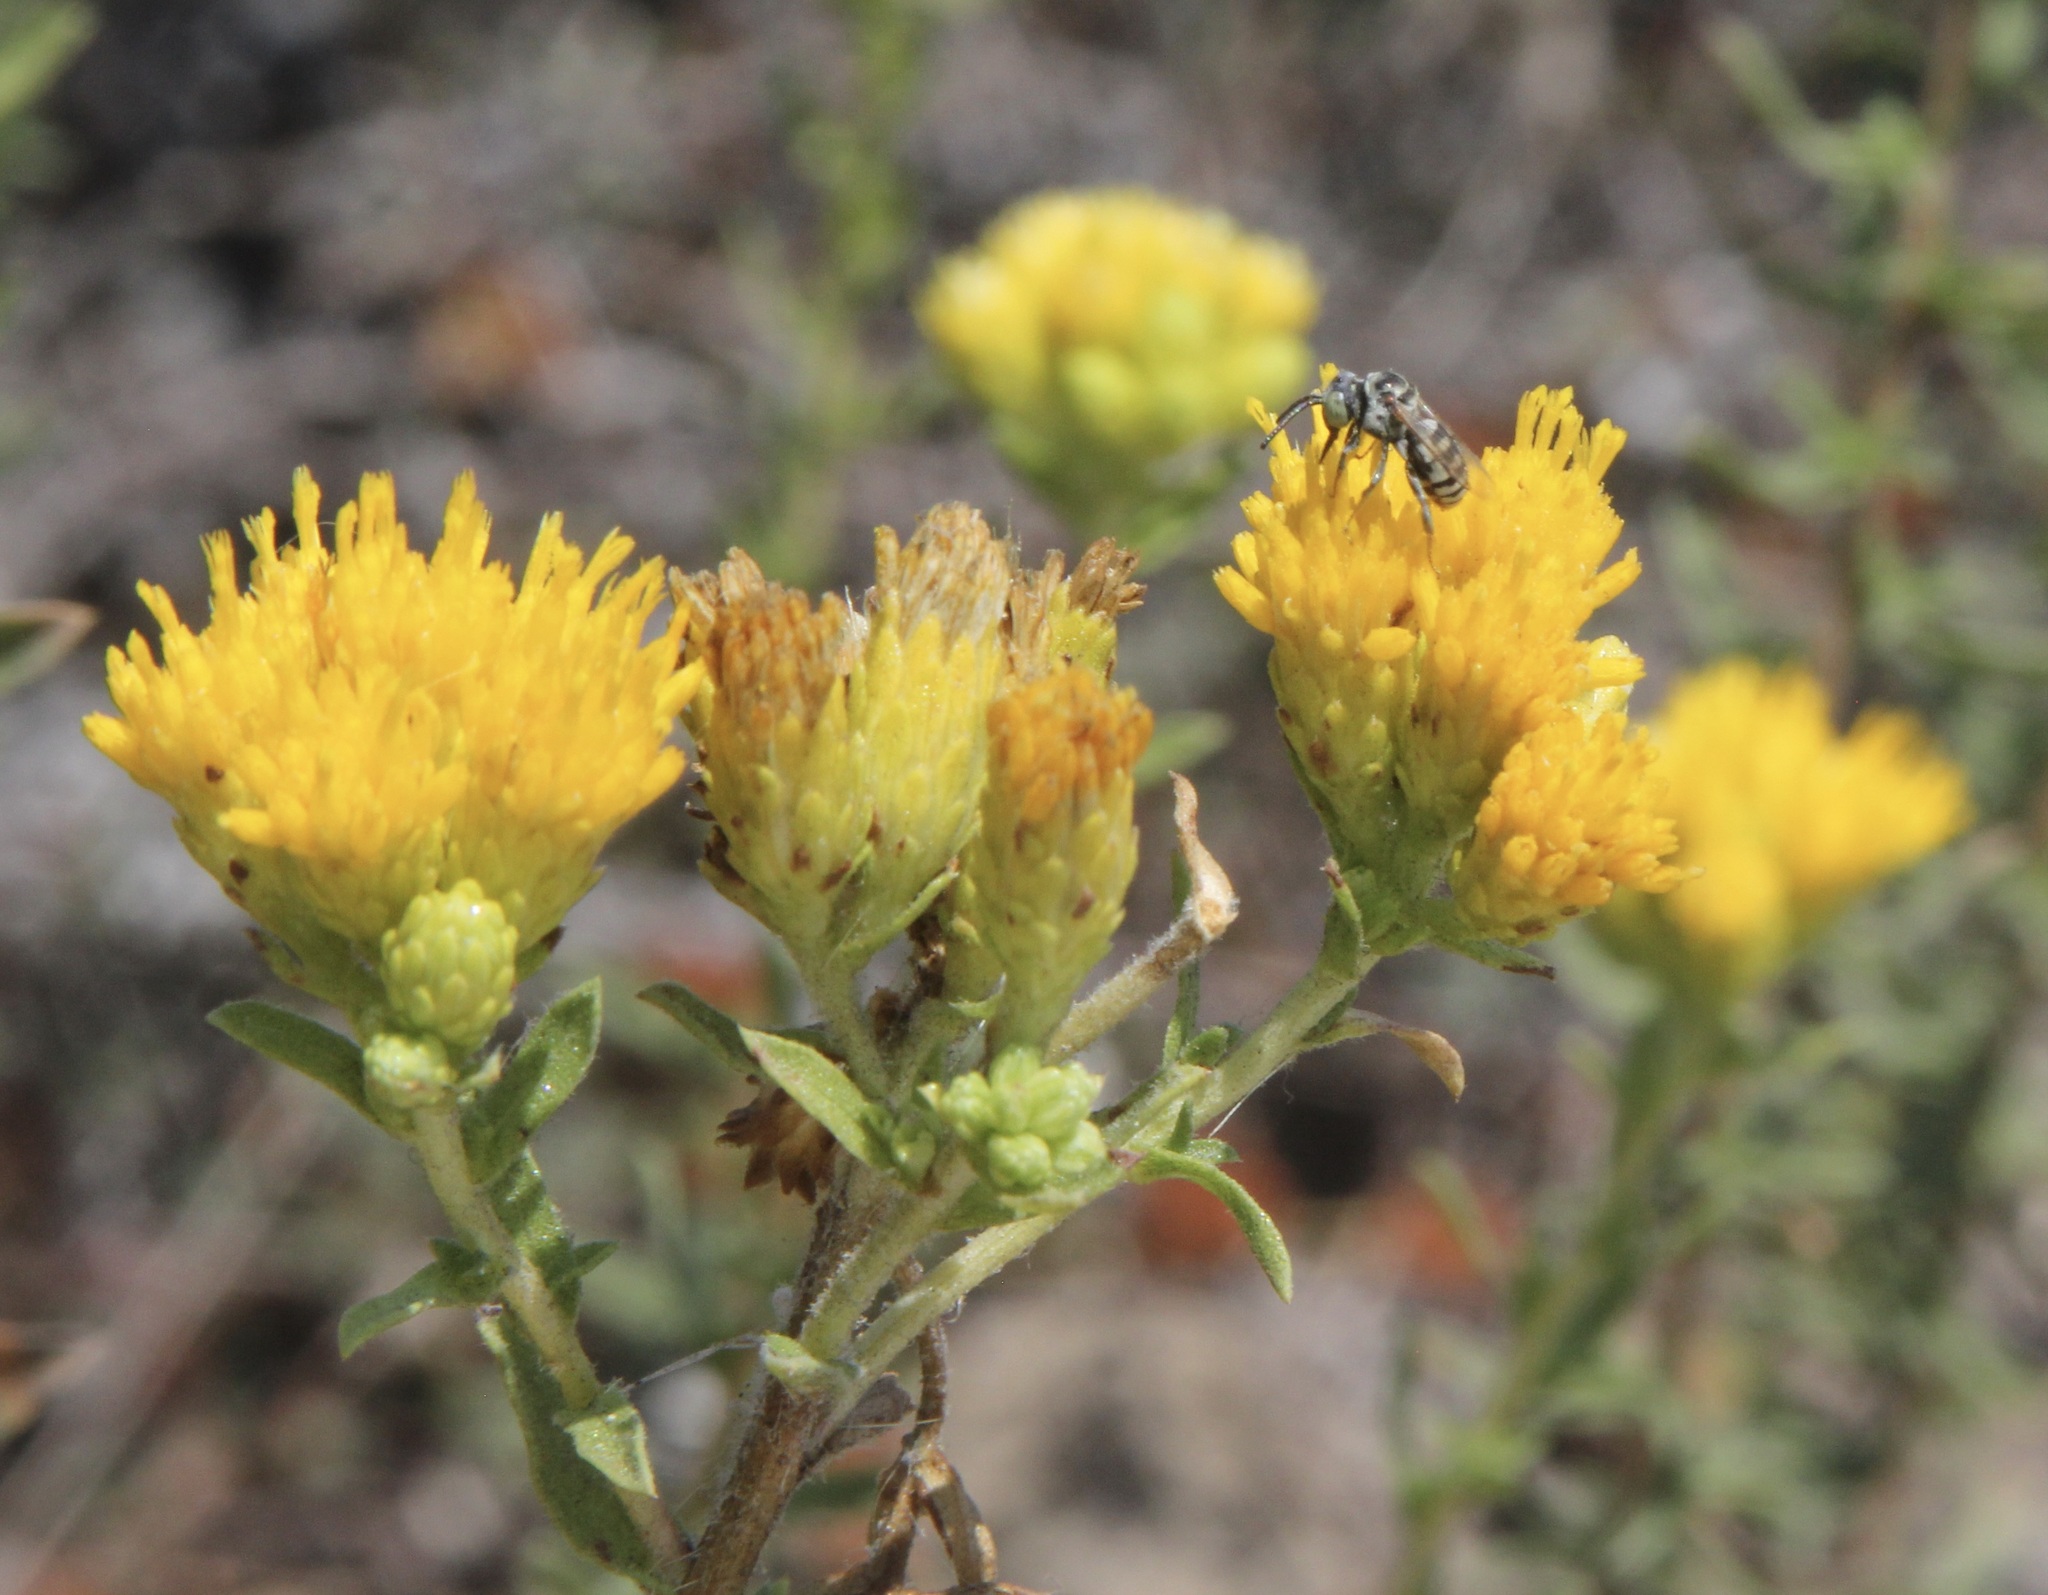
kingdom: Plantae
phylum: Tracheophyta
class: Magnoliopsida
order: Asterales
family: Asteraceae
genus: Isocoma
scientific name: Isocoma menziesii
